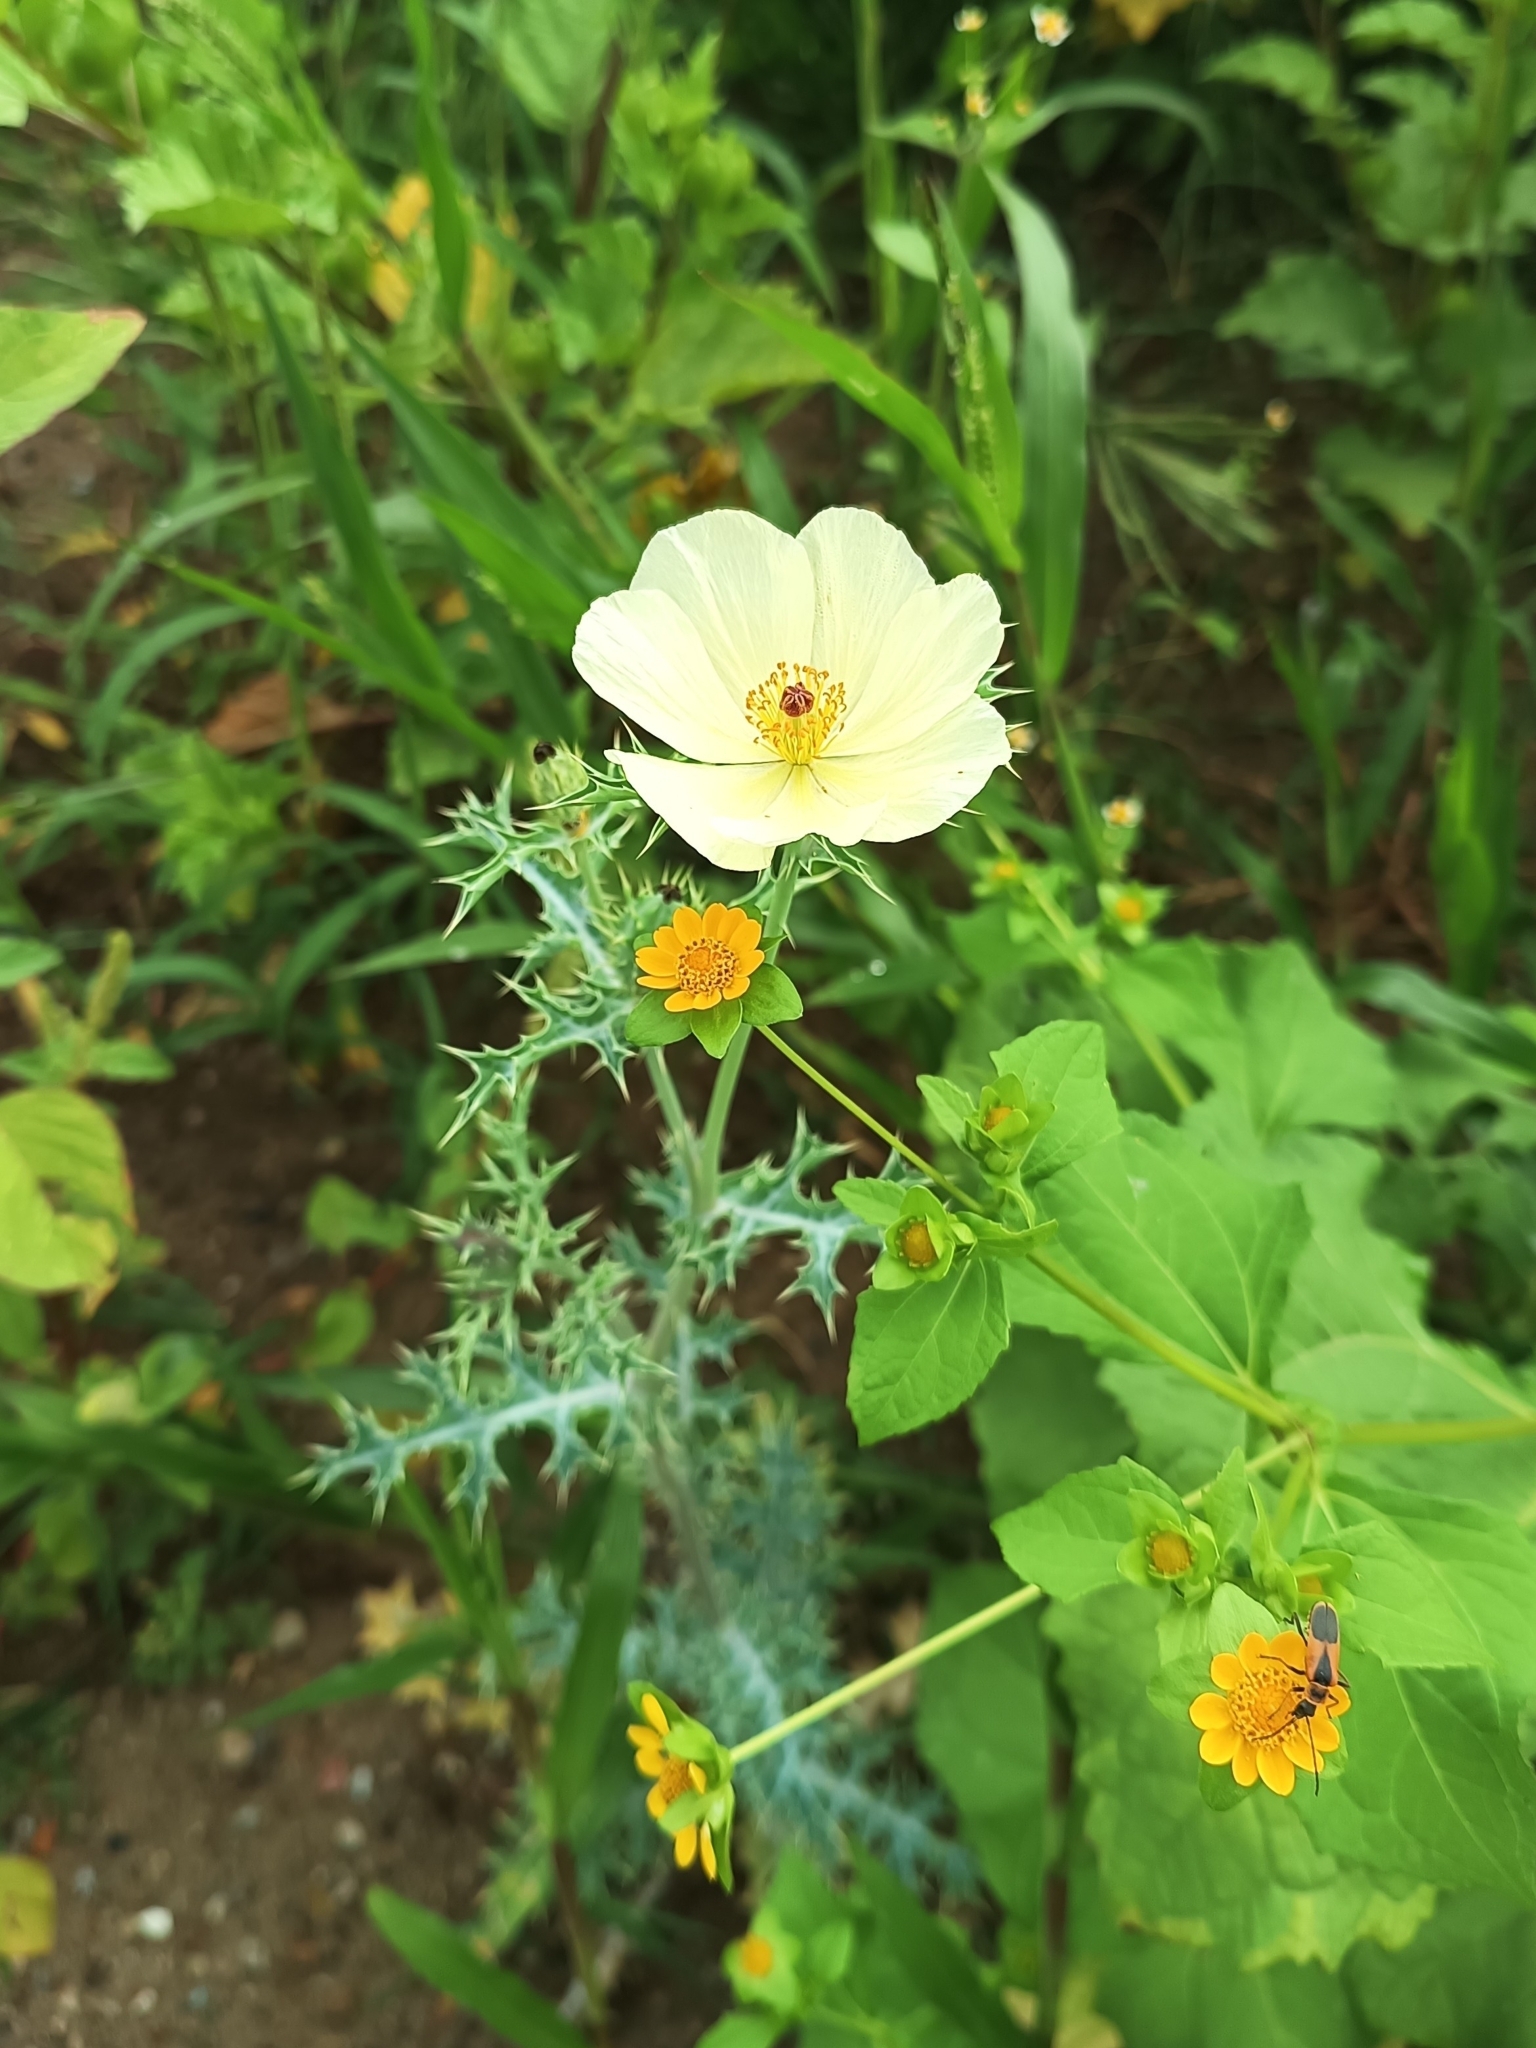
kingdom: Plantae
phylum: Tracheophyta
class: Magnoliopsida
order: Ranunculales
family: Papaveraceae
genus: Argemone
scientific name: Argemone ochroleuca
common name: White-flower mexican-poppy
